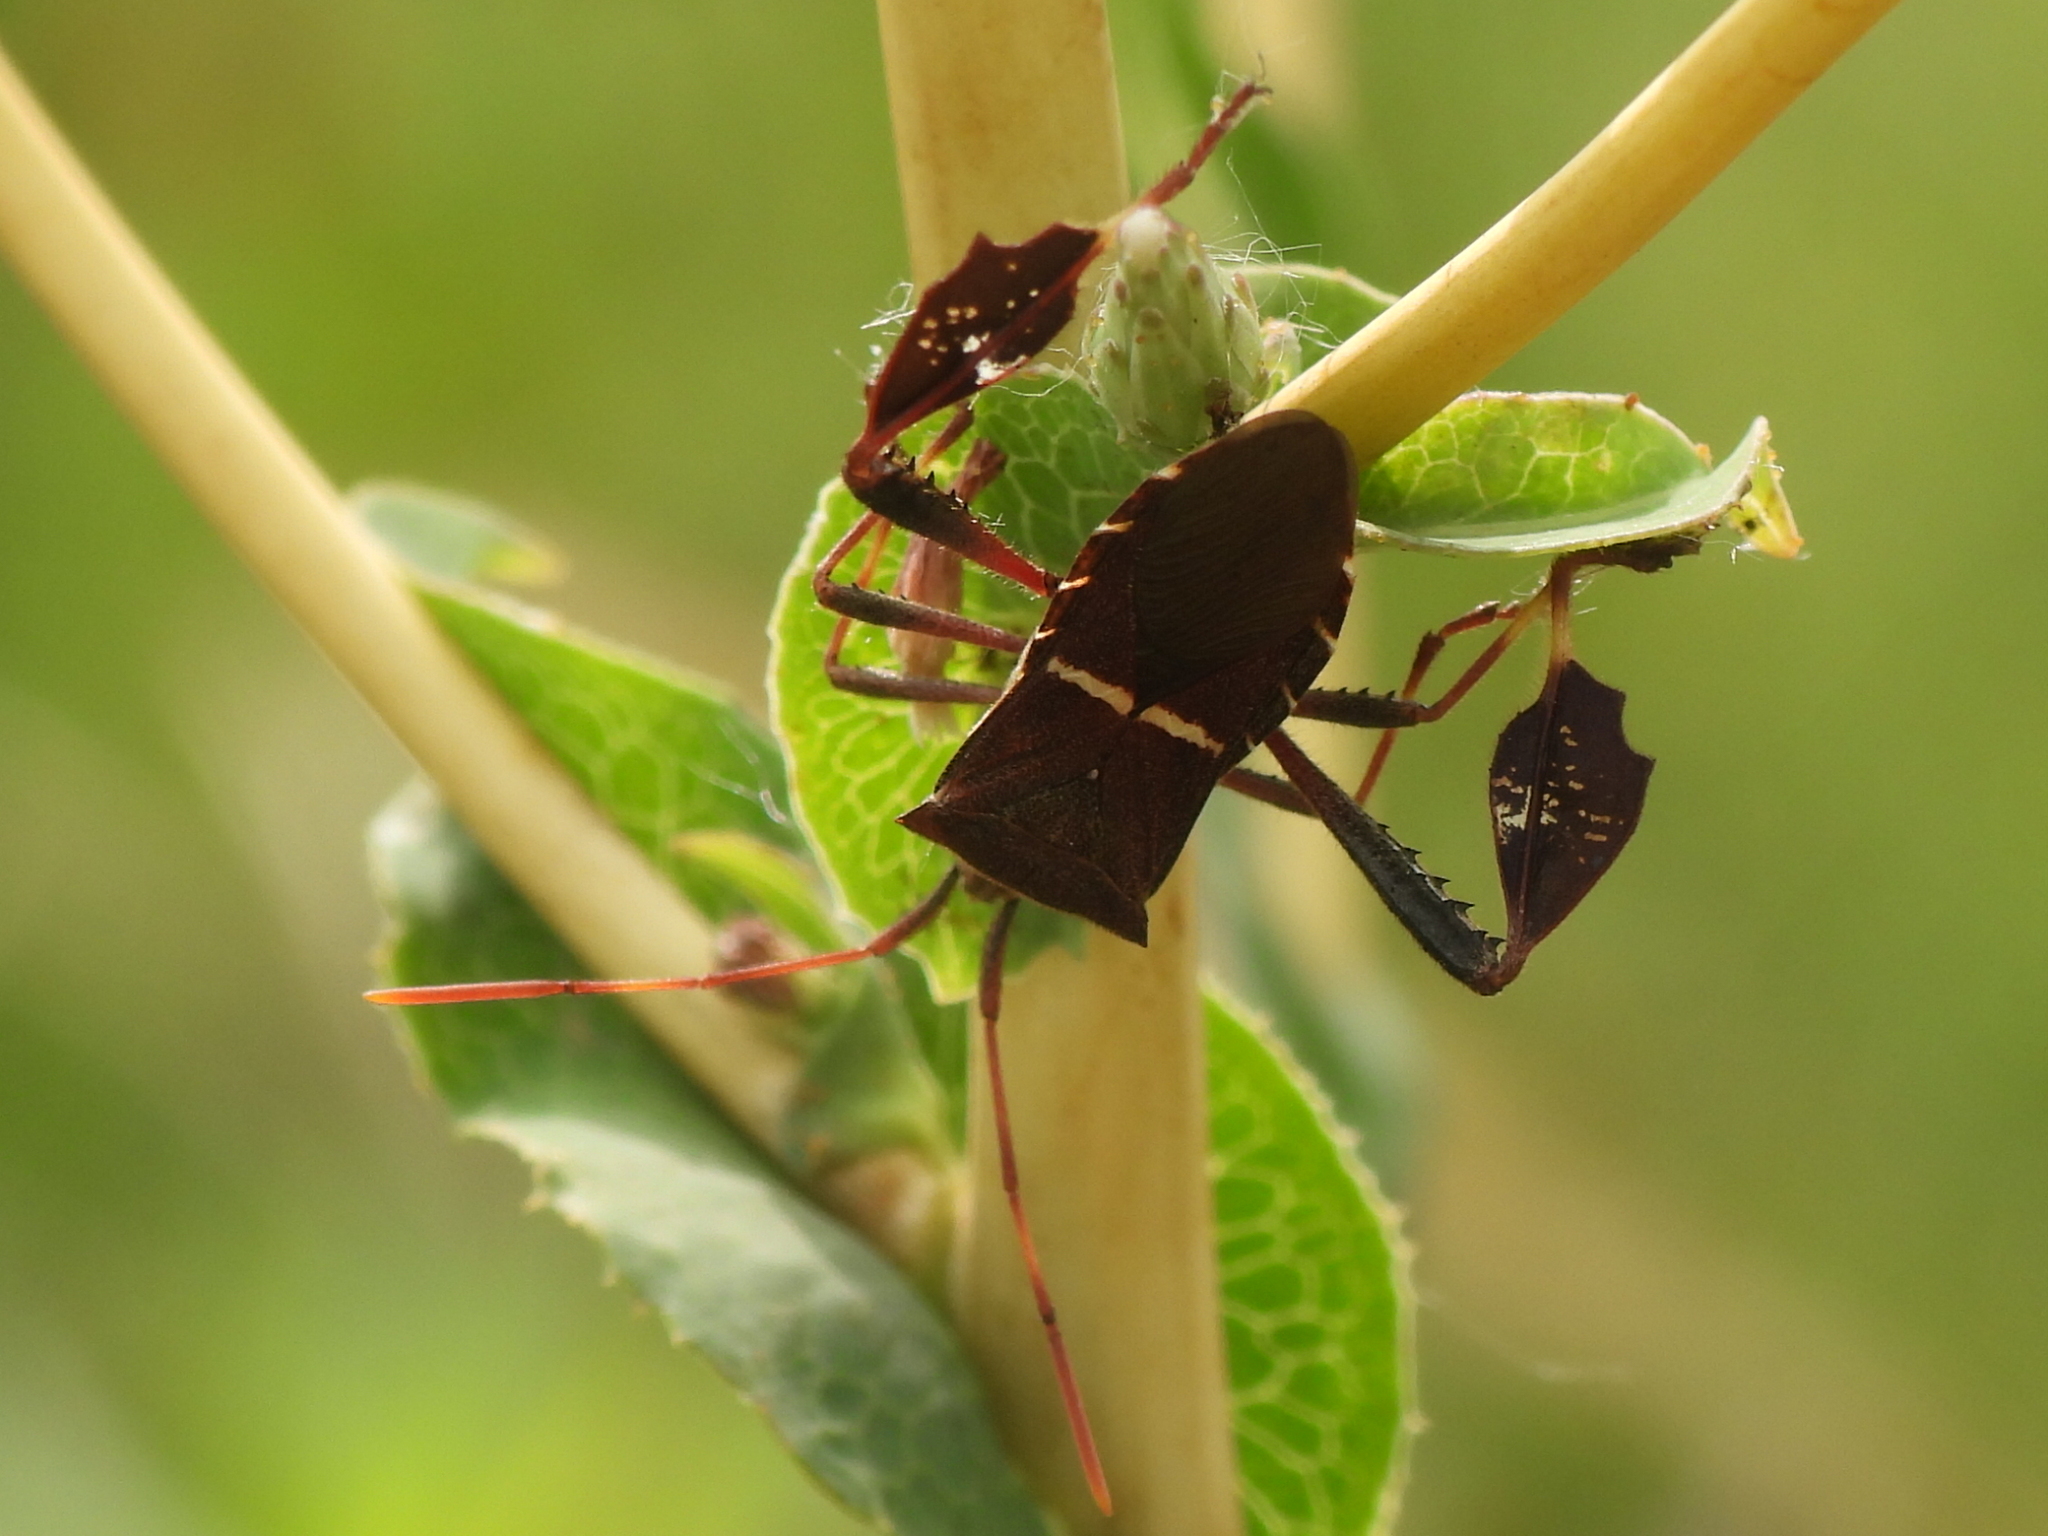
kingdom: Animalia
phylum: Arthropoda
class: Insecta
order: Hemiptera
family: Coreidae
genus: Leptoglossus
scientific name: Leptoglossus phyllopus
